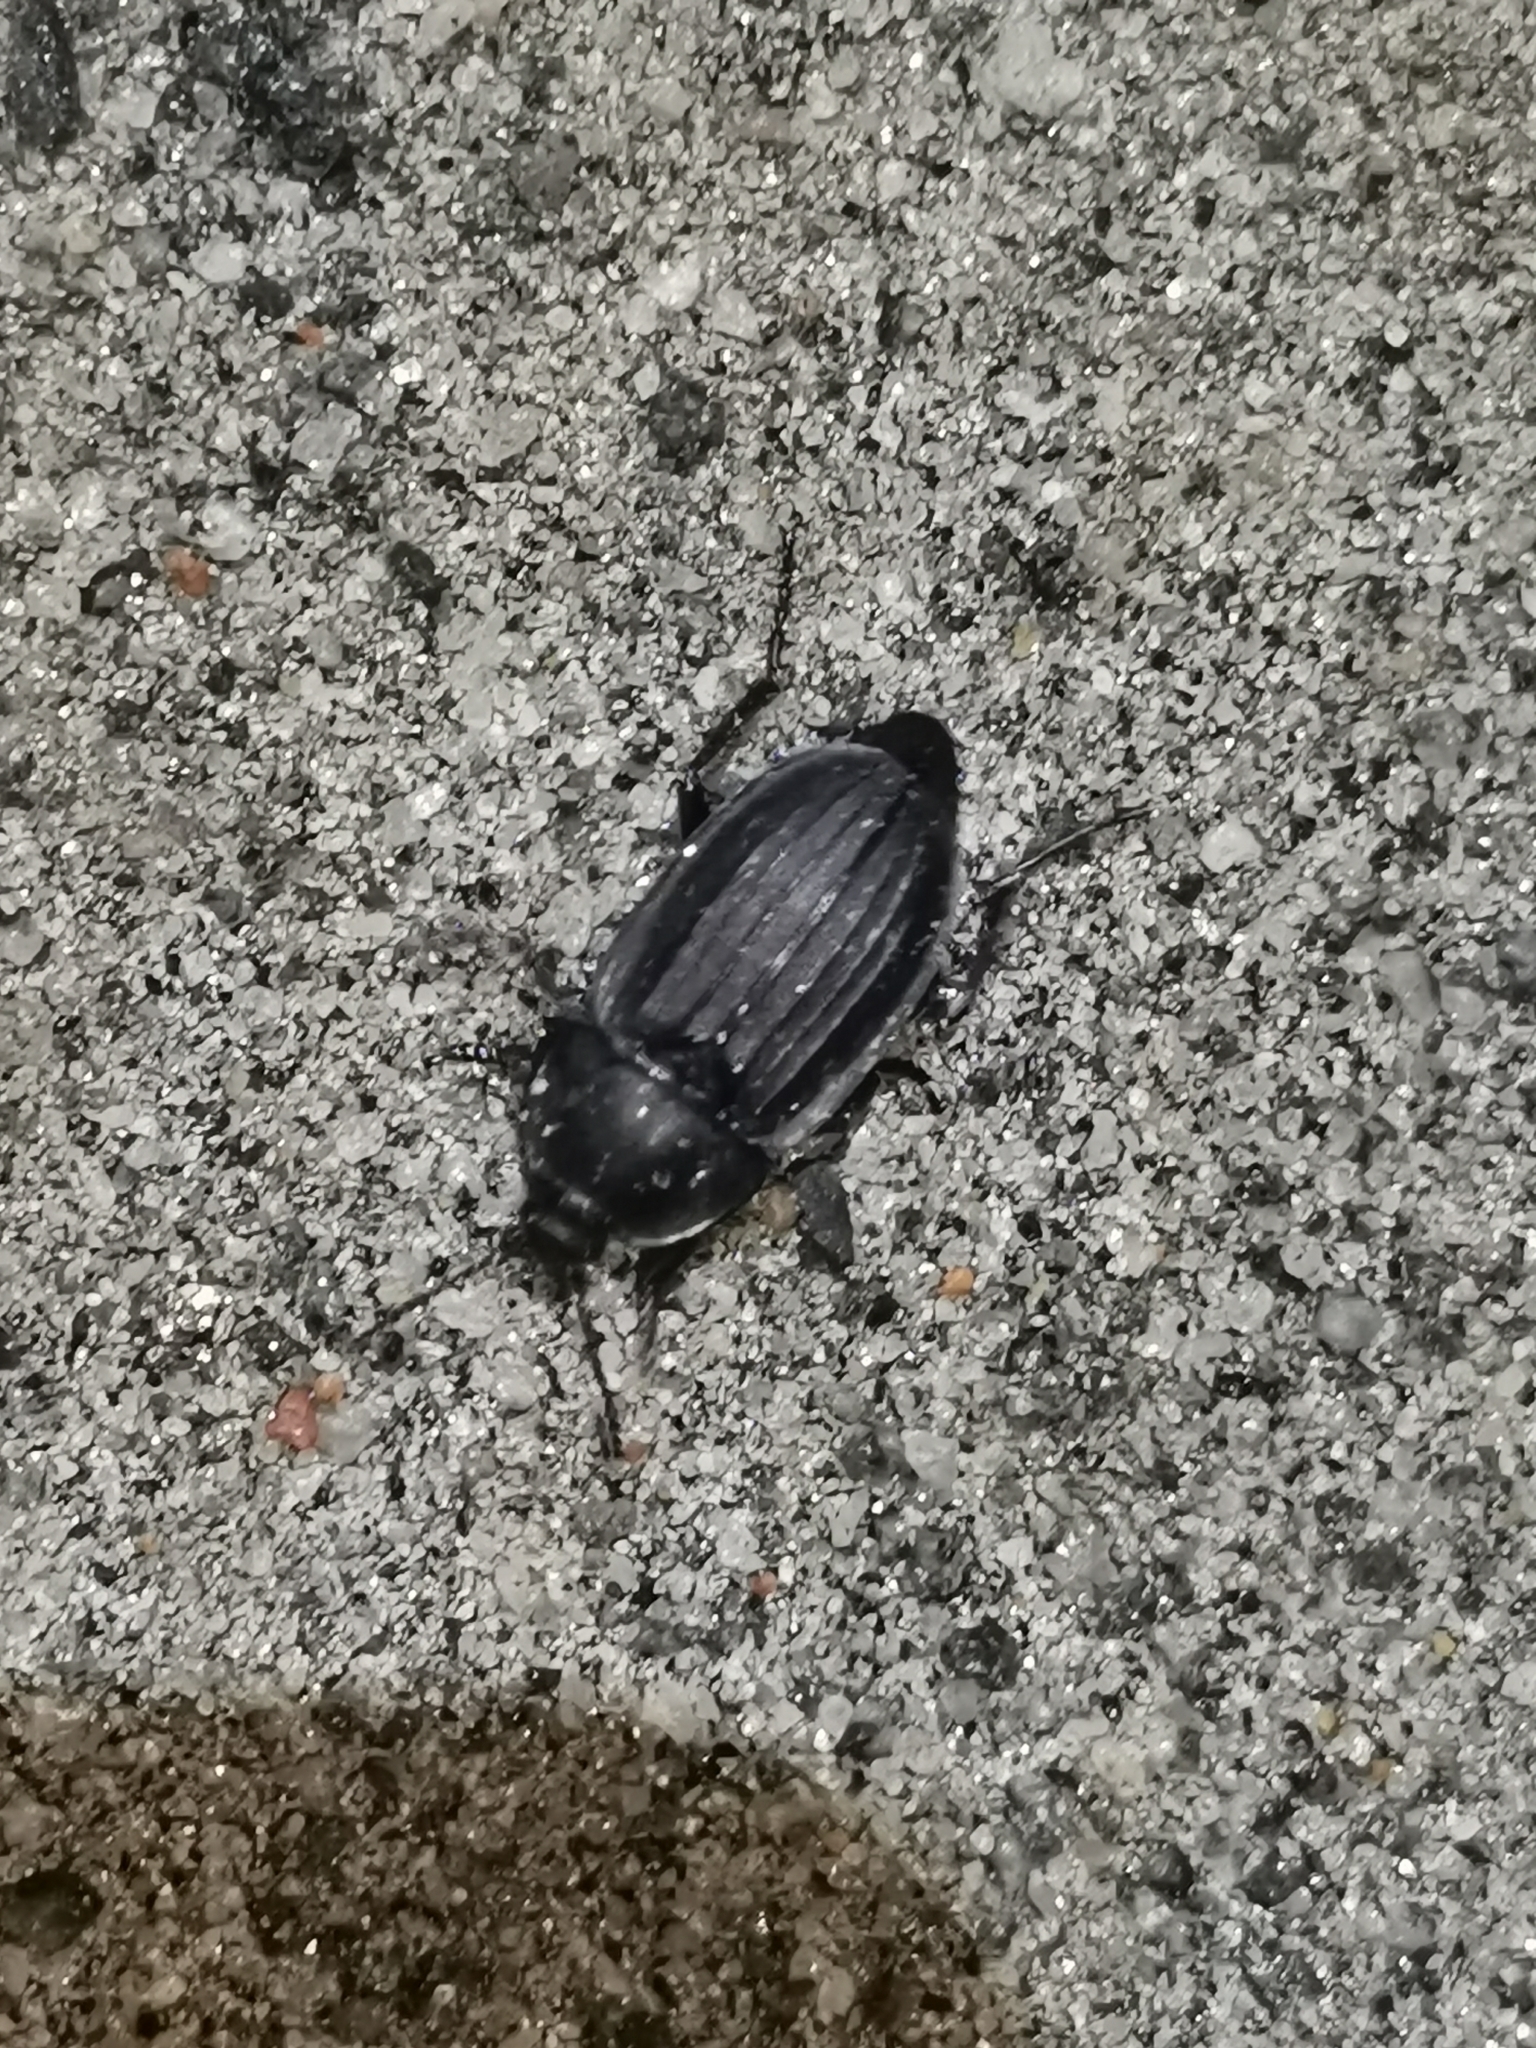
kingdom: Animalia
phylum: Arthropoda
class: Insecta
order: Coleoptera
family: Staphylinidae
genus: Silpha
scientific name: Silpha carinata
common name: Silphid beetle
